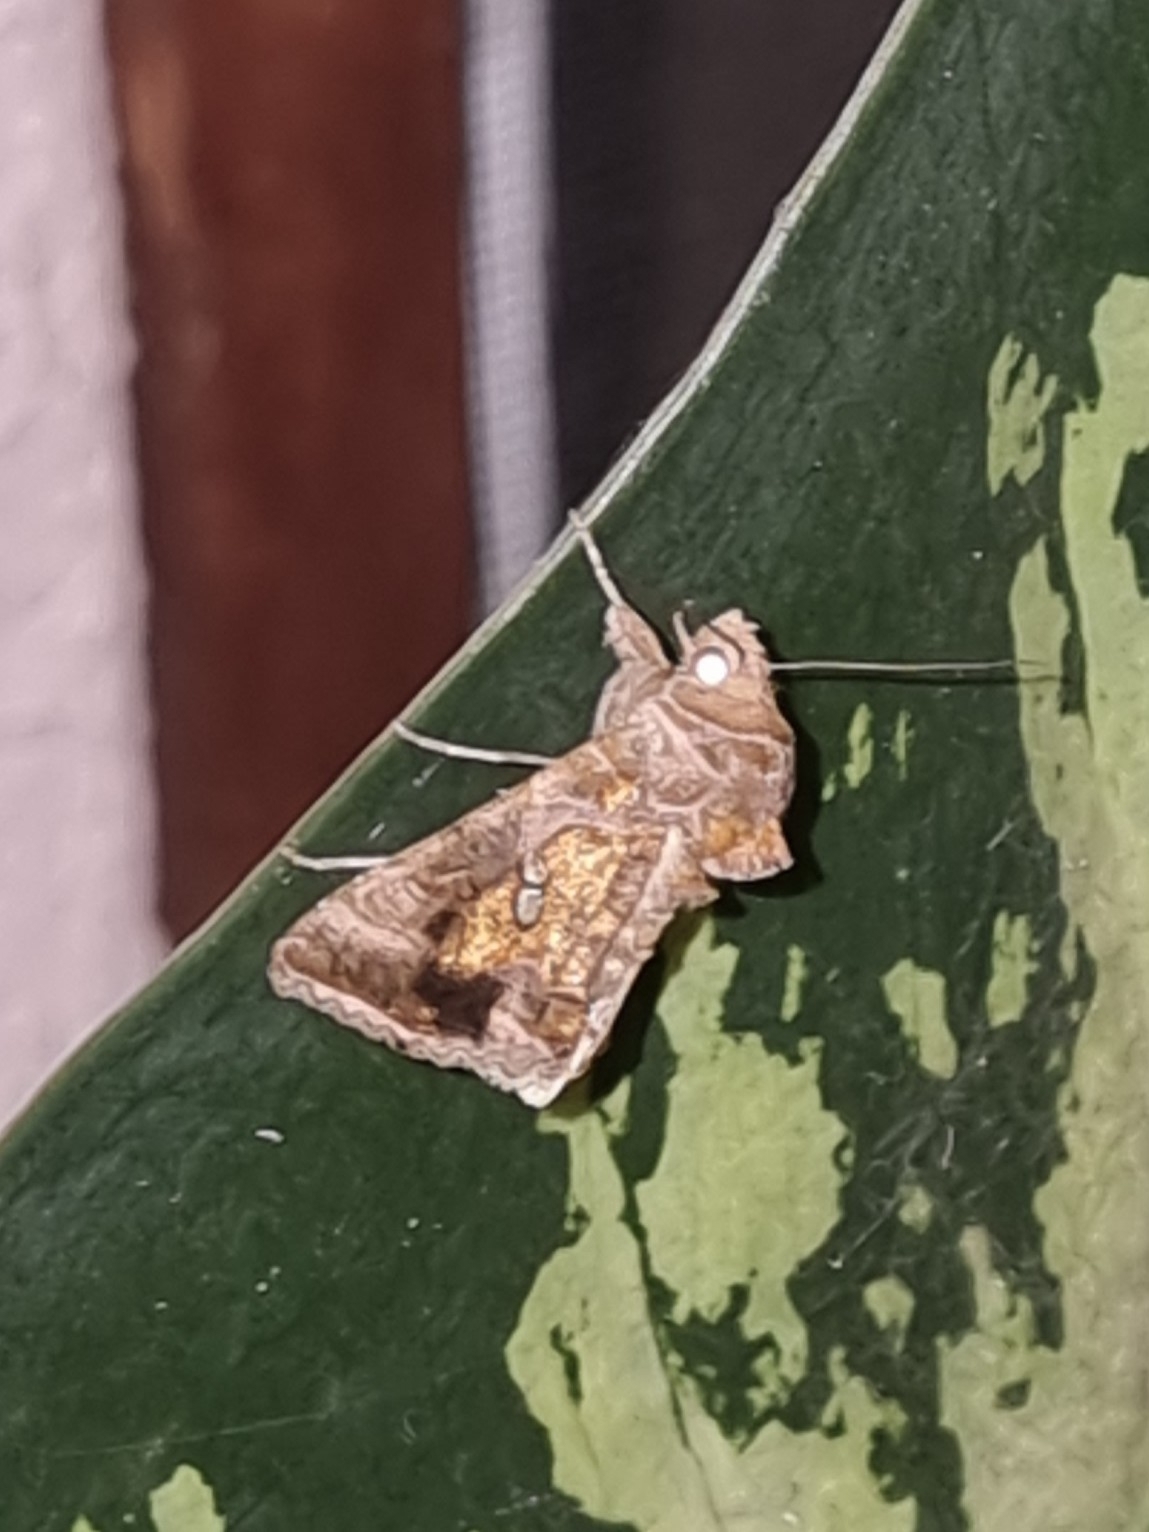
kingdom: Animalia
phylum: Arthropoda
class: Insecta
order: Lepidoptera
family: Noctuidae
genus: Chrysodeixis
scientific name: Chrysodeixis chalcites
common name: Golden twin-spot
